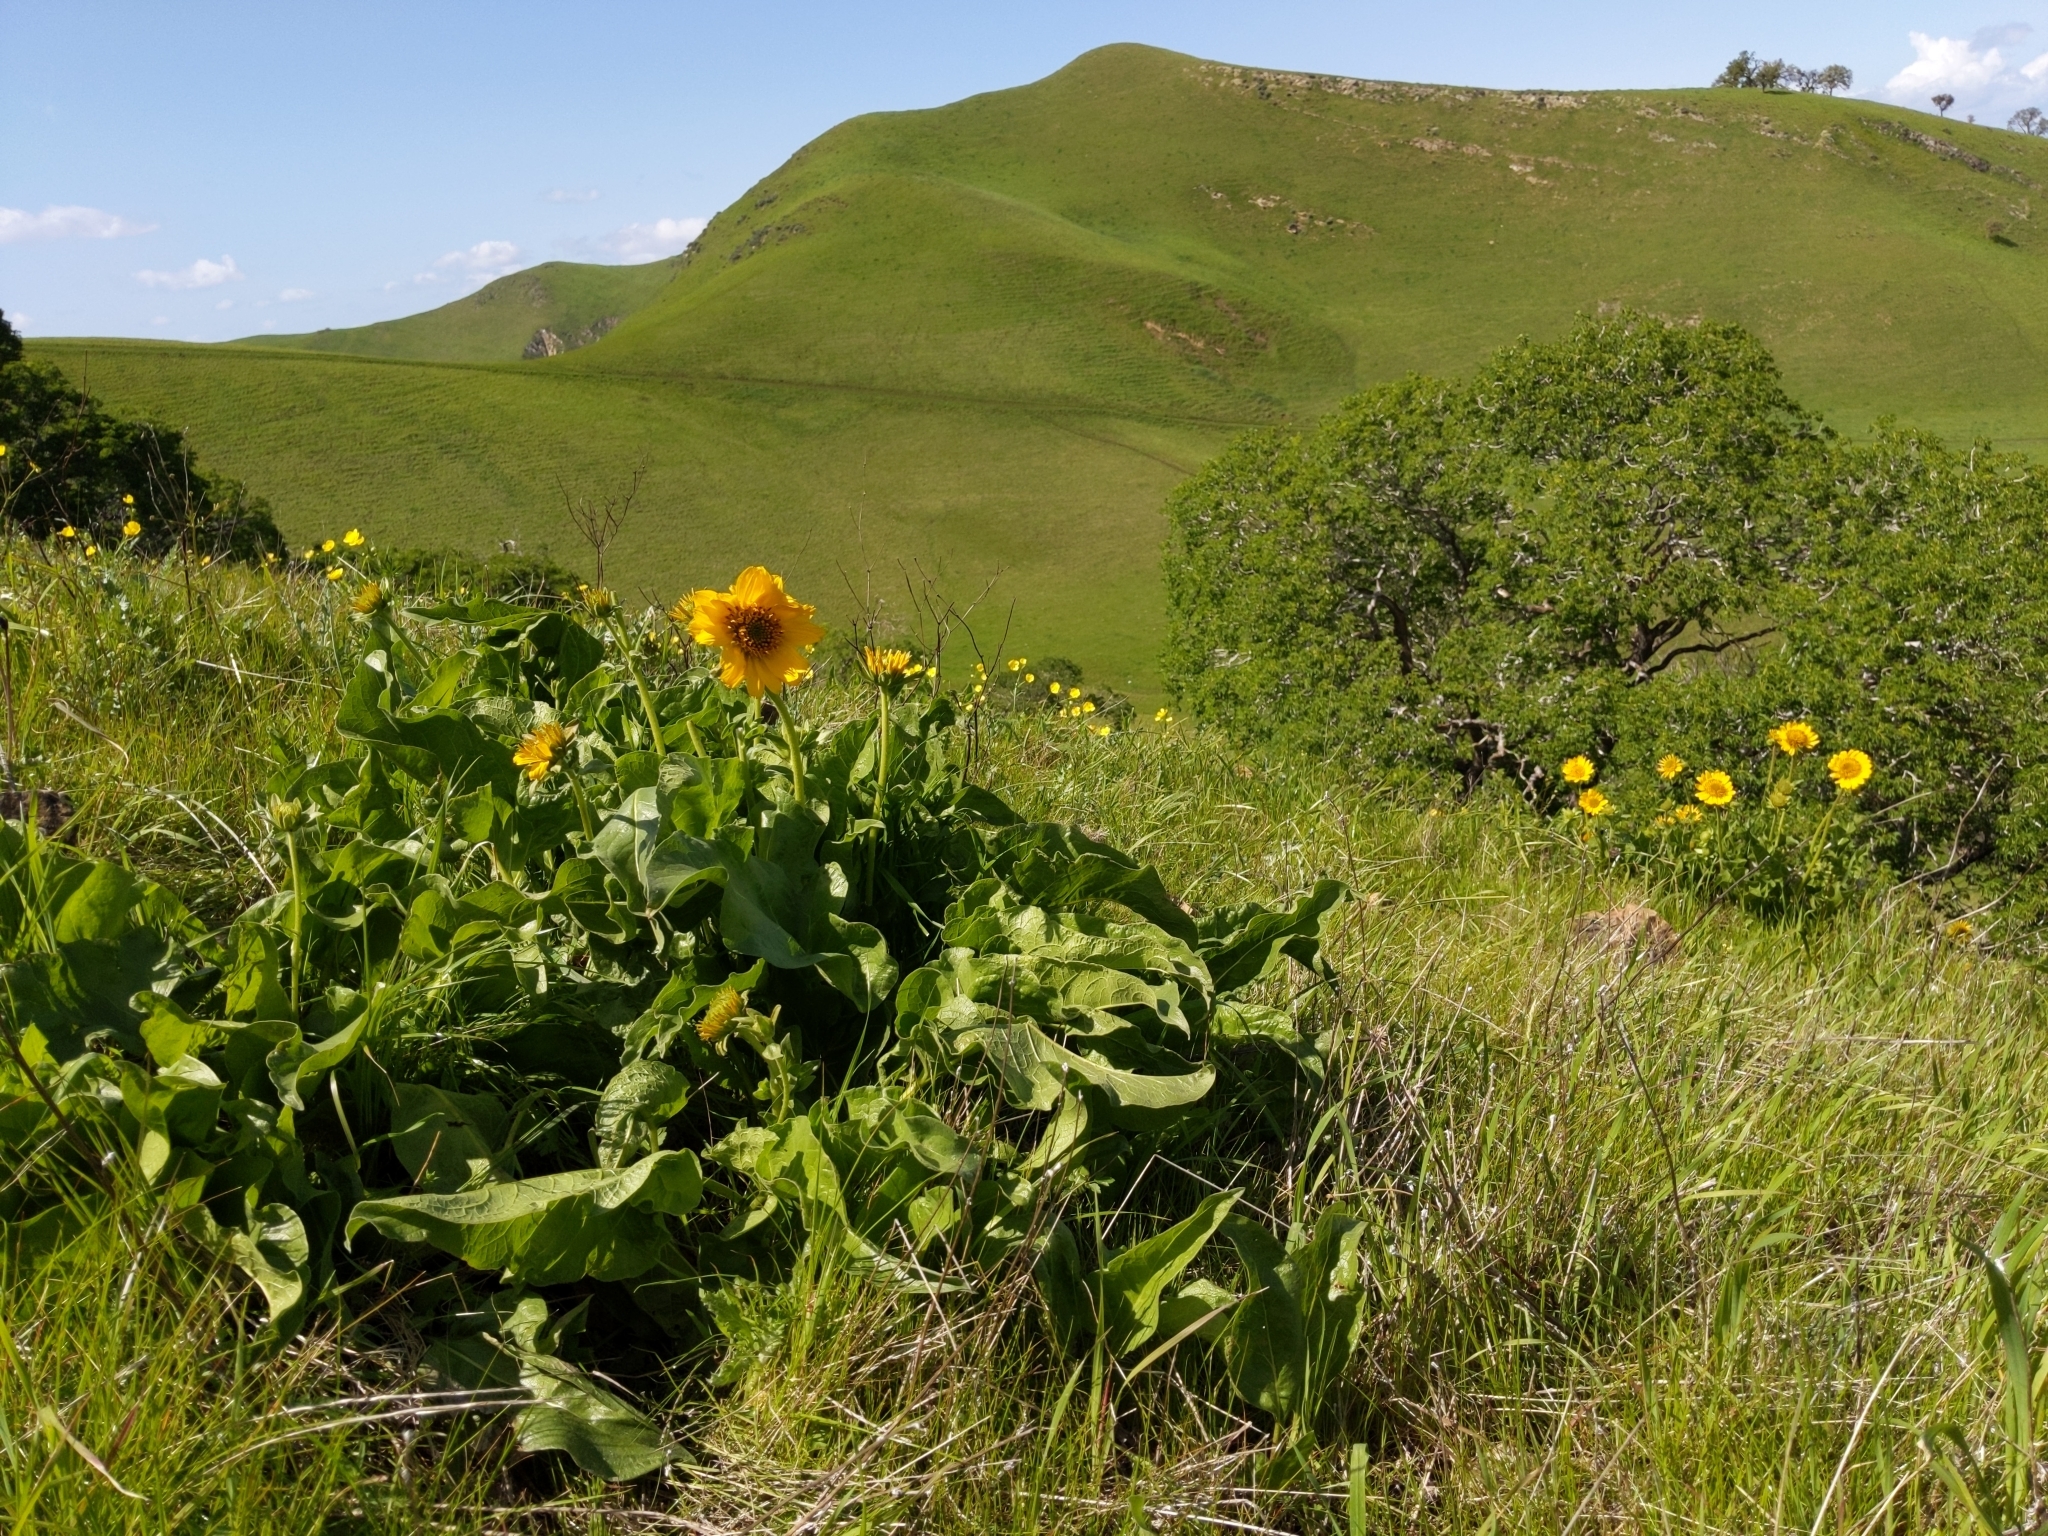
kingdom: Plantae
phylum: Tracheophyta
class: Magnoliopsida
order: Asterales
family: Asteraceae
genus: Balsamorhiza
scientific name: Balsamorhiza deltoidea
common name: Deltoid balsamroot
